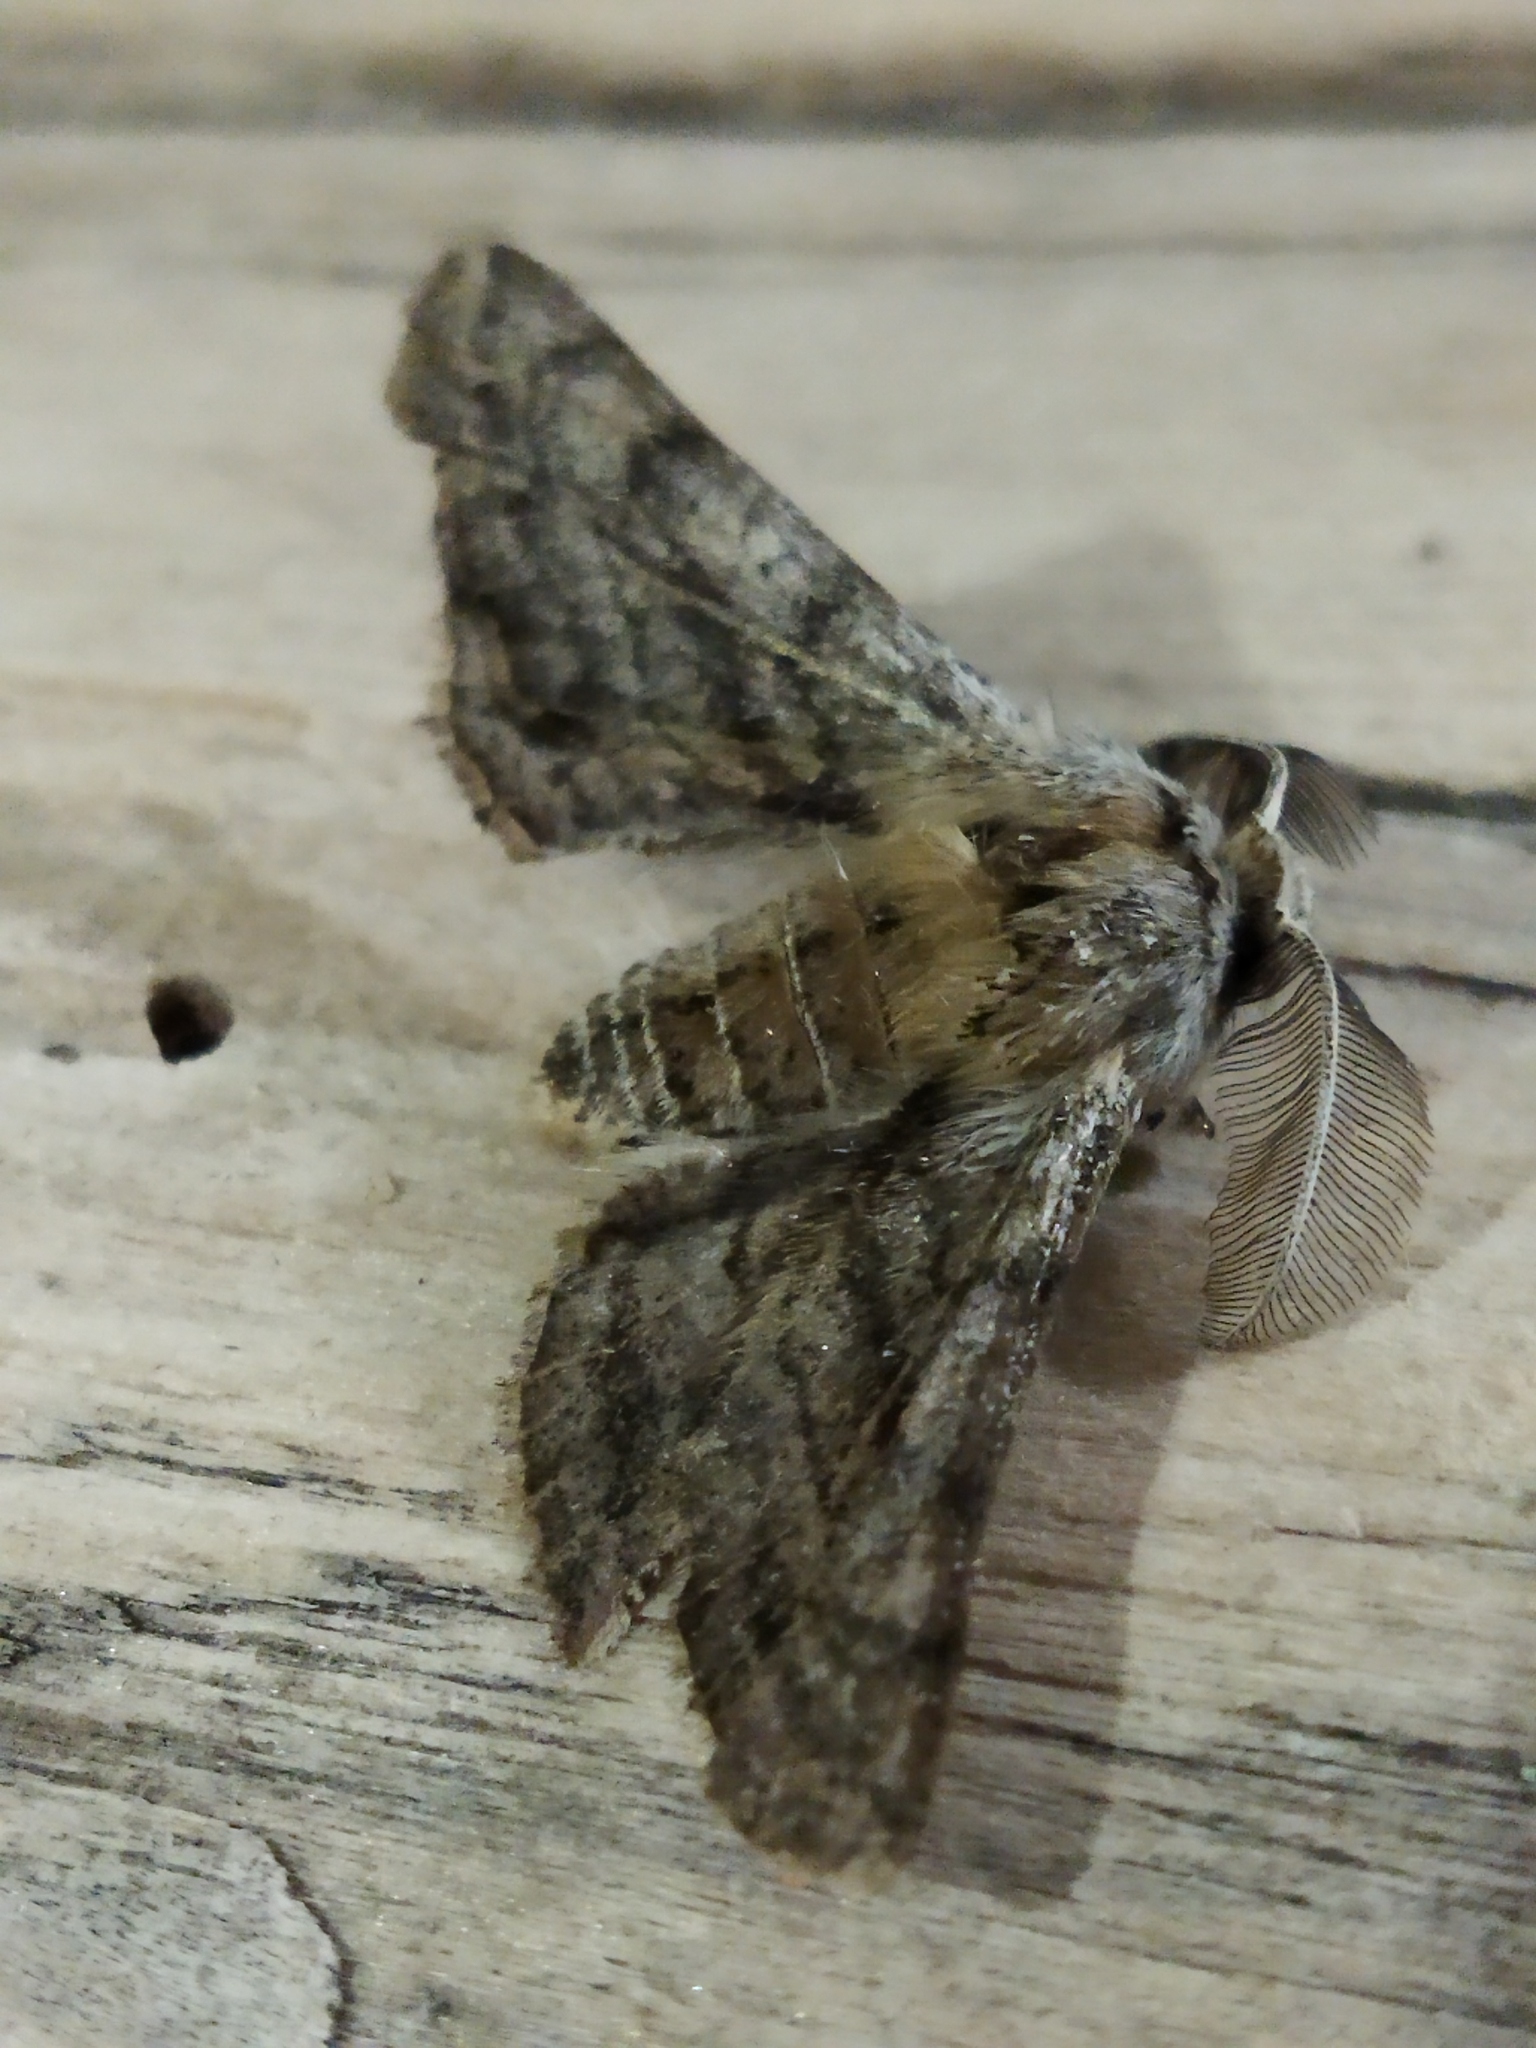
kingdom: Animalia
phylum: Arthropoda
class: Insecta
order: Lepidoptera
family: Geometridae
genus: Apochima
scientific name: Apochima flabellaria
